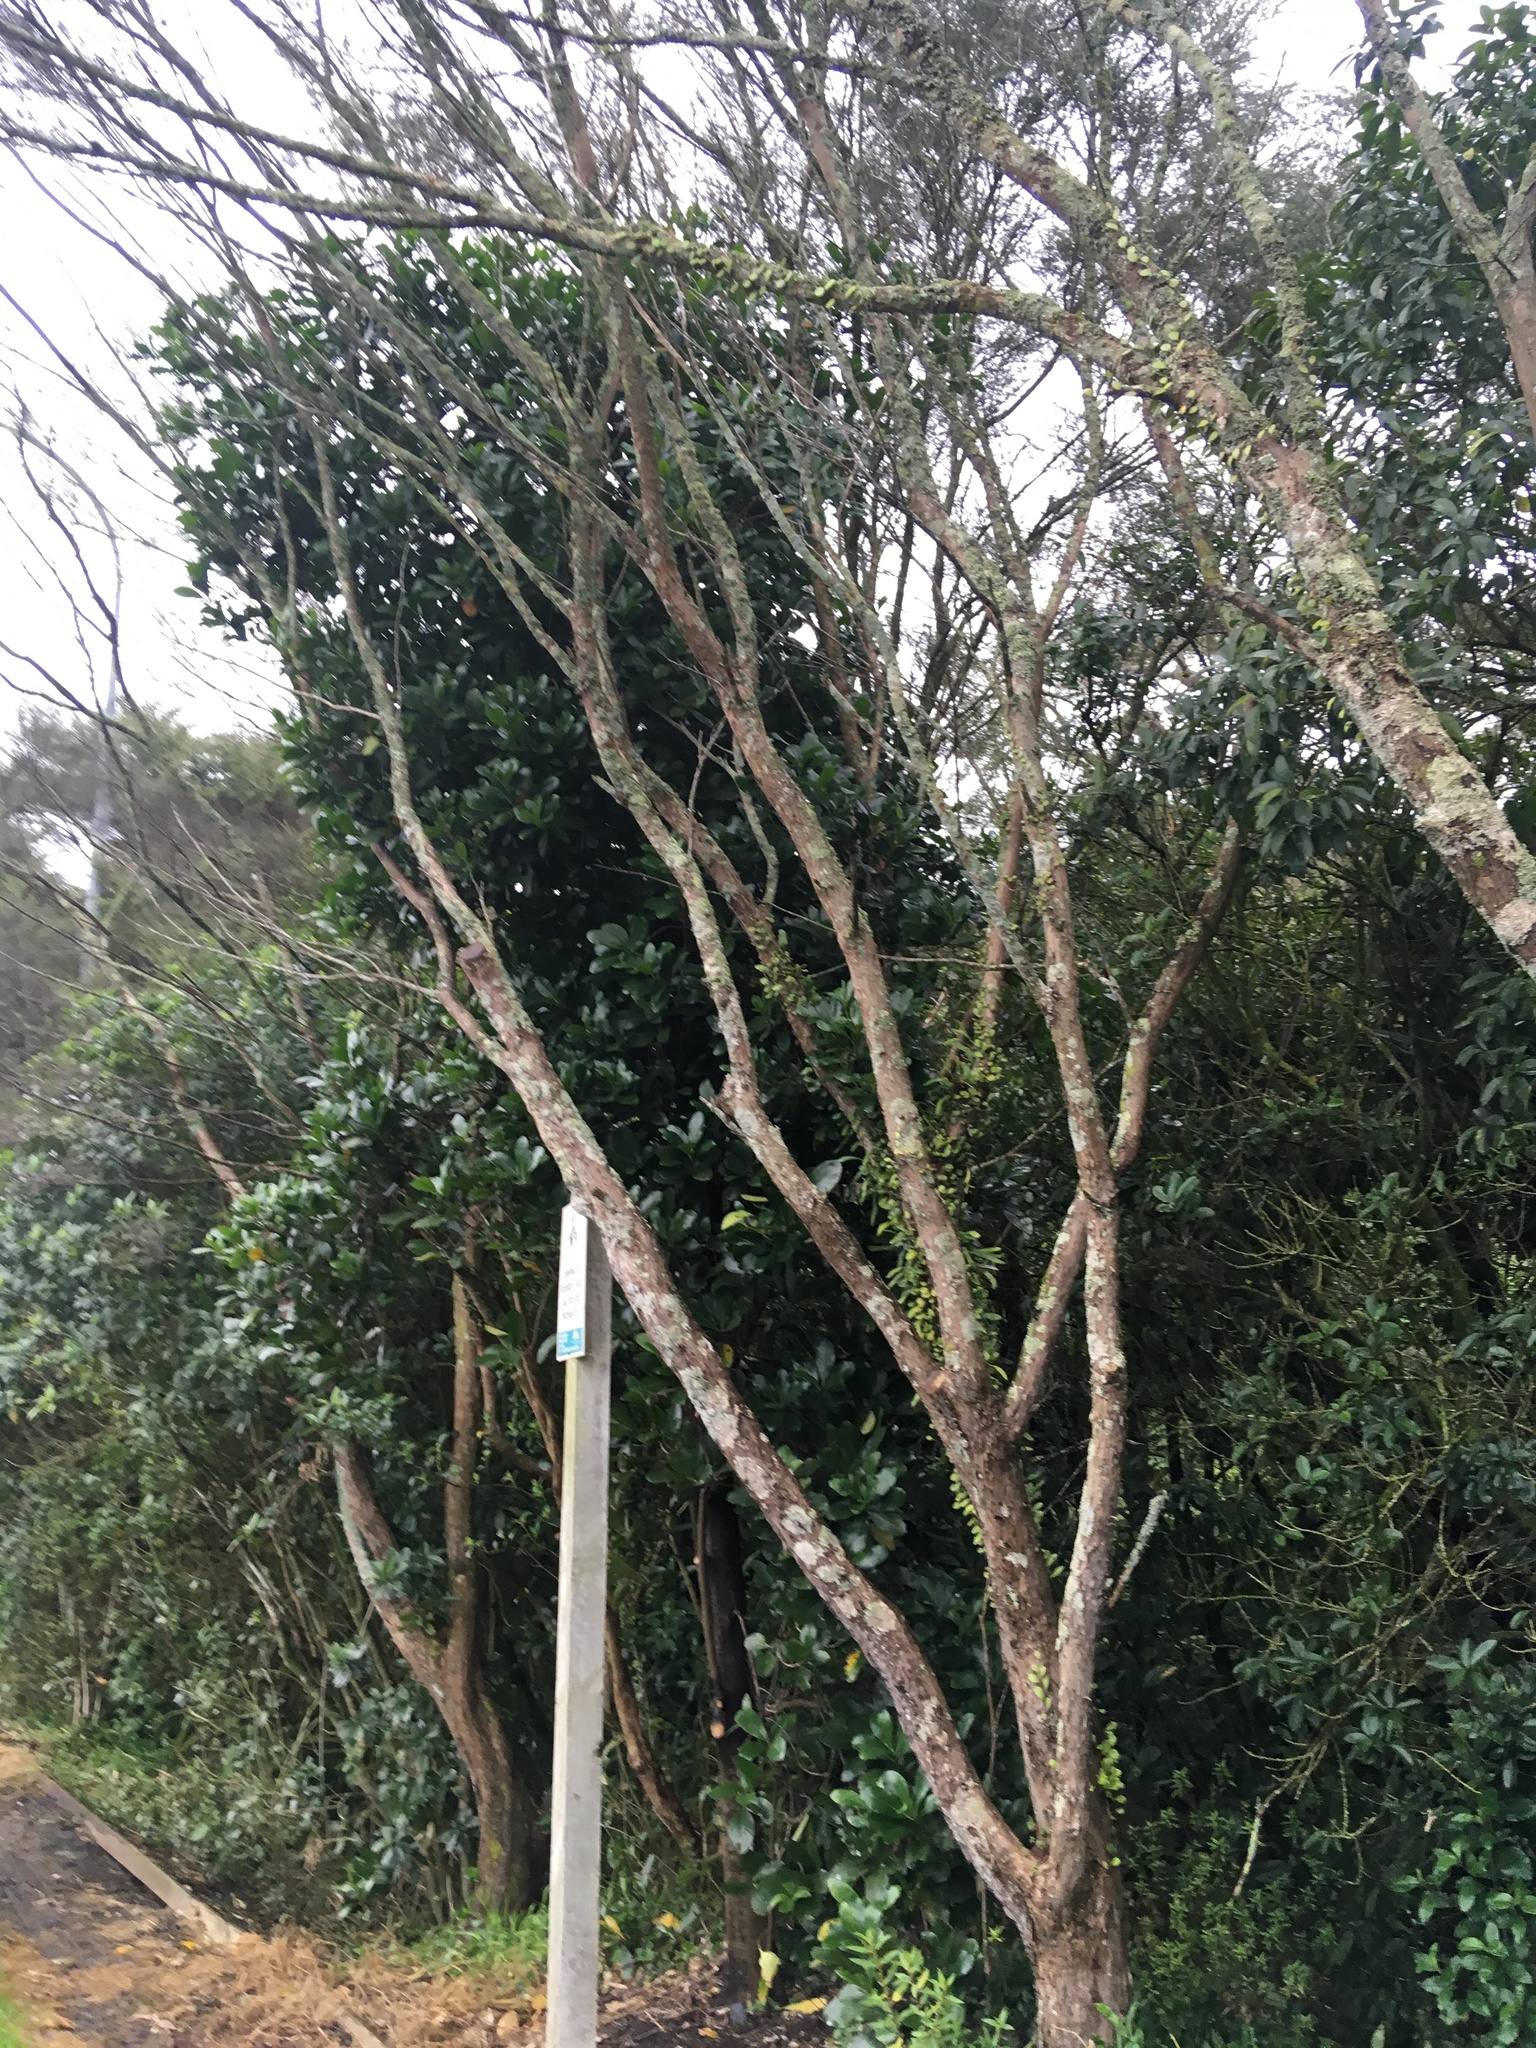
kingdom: Plantae
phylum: Tracheophyta
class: Polypodiopsida
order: Polypodiales
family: Polypodiaceae
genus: Pyrrosia
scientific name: Pyrrosia eleagnifolia
